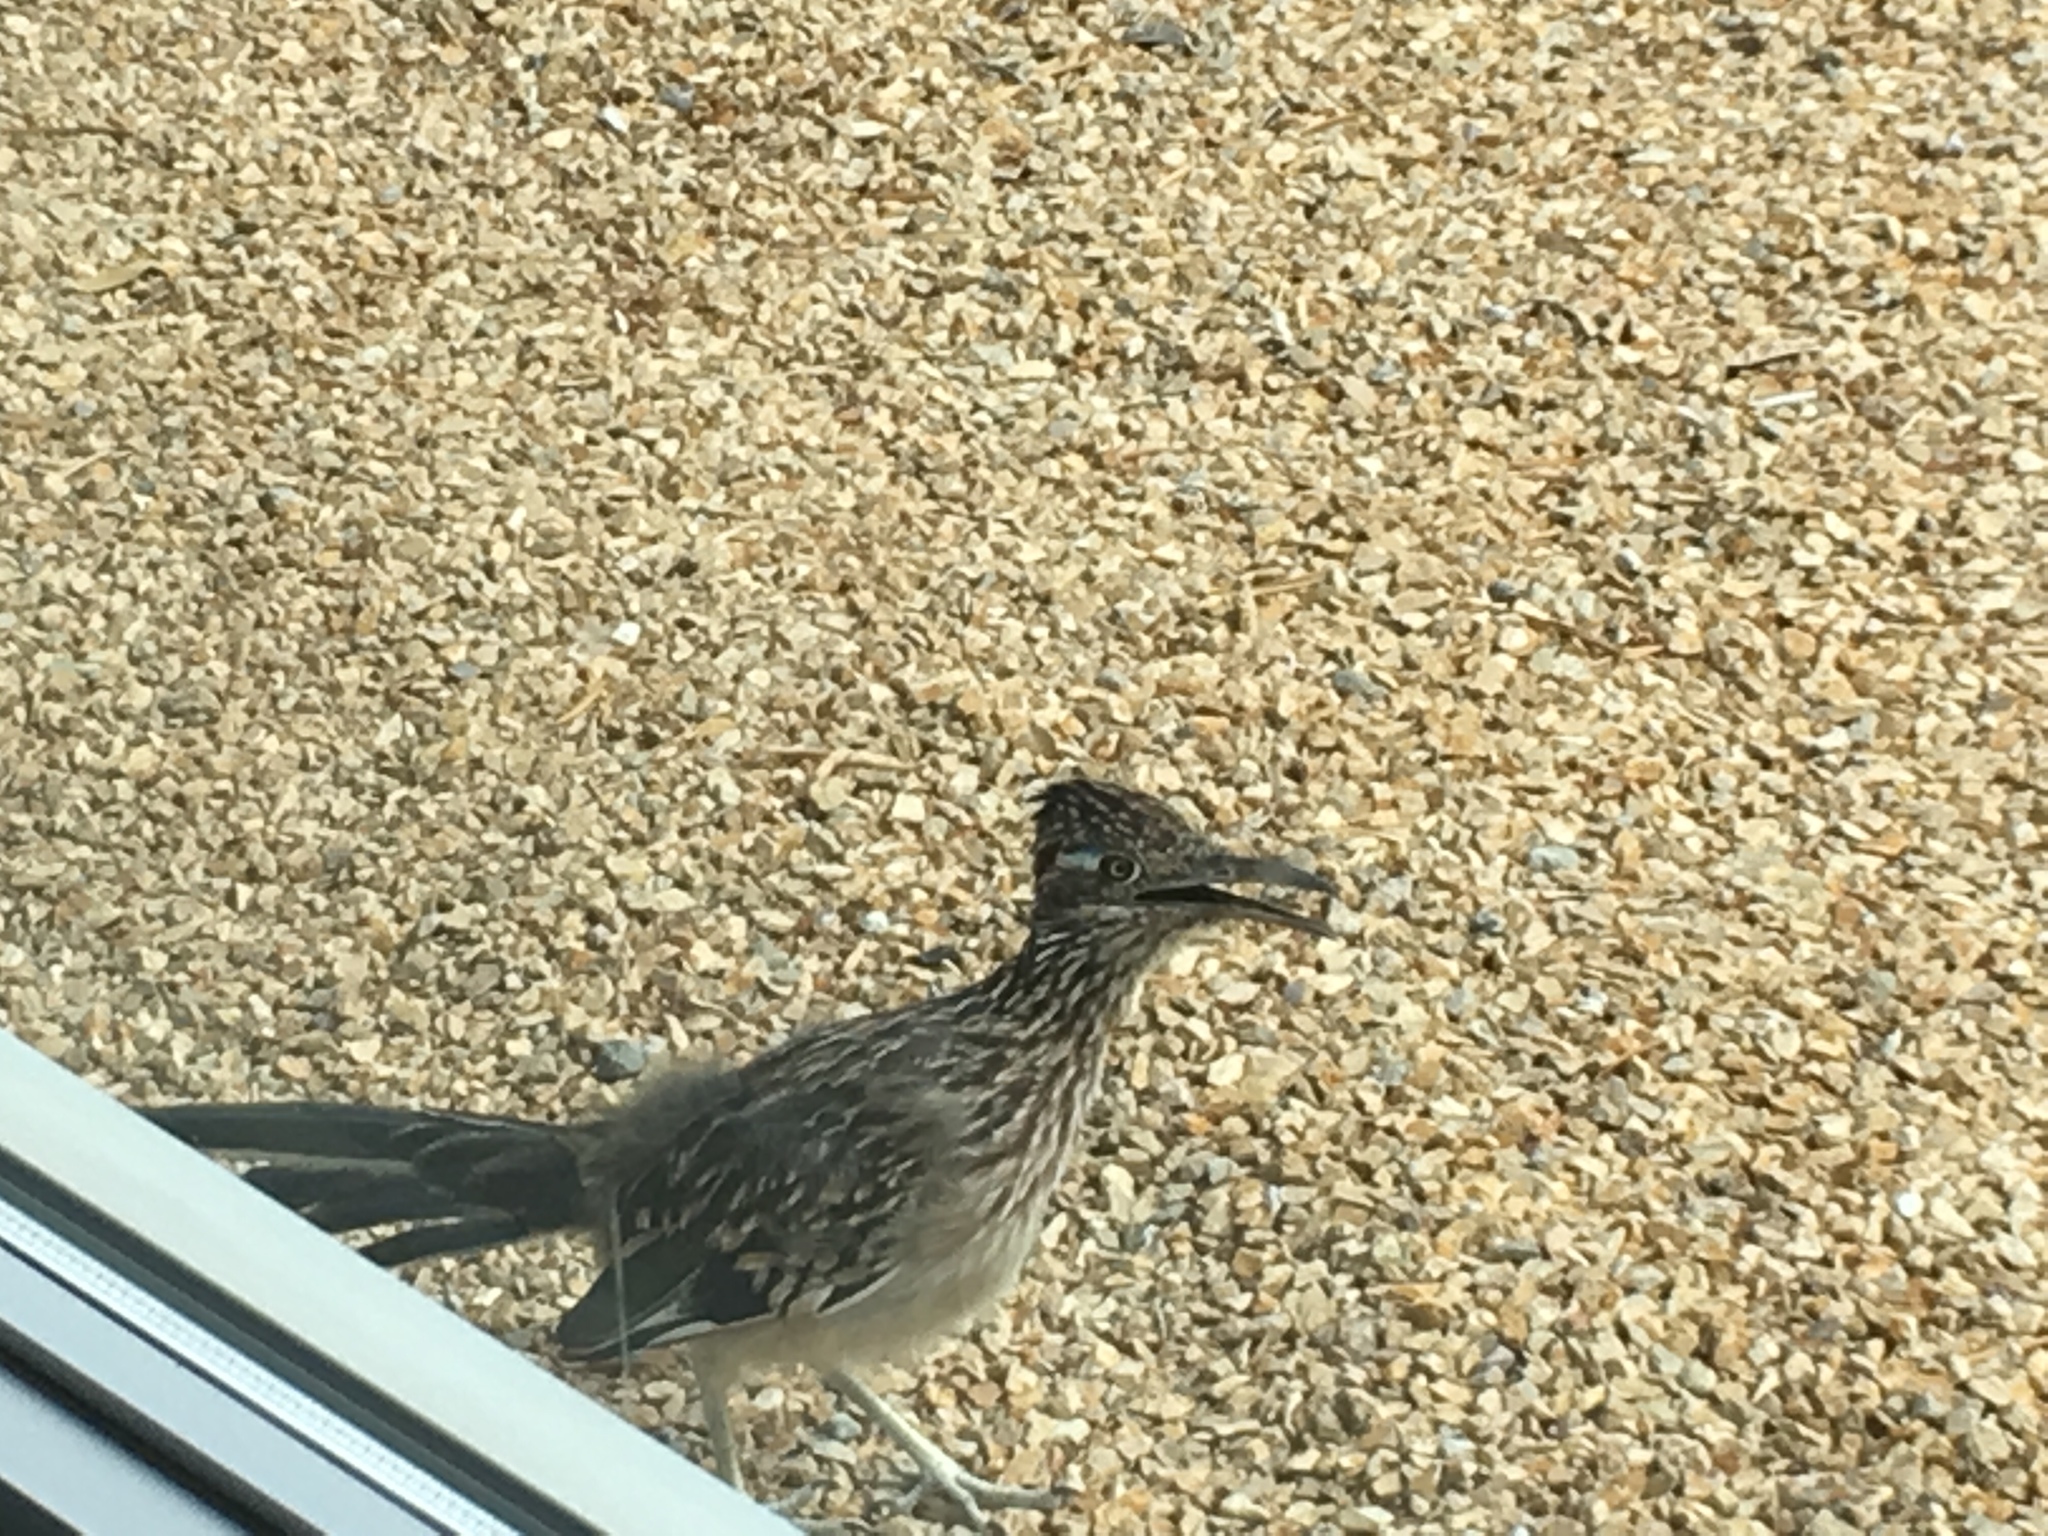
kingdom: Animalia
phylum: Chordata
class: Aves
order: Cuculiformes
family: Cuculidae
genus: Geococcyx
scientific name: Geococcyx californianus
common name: Greater roadrunner
